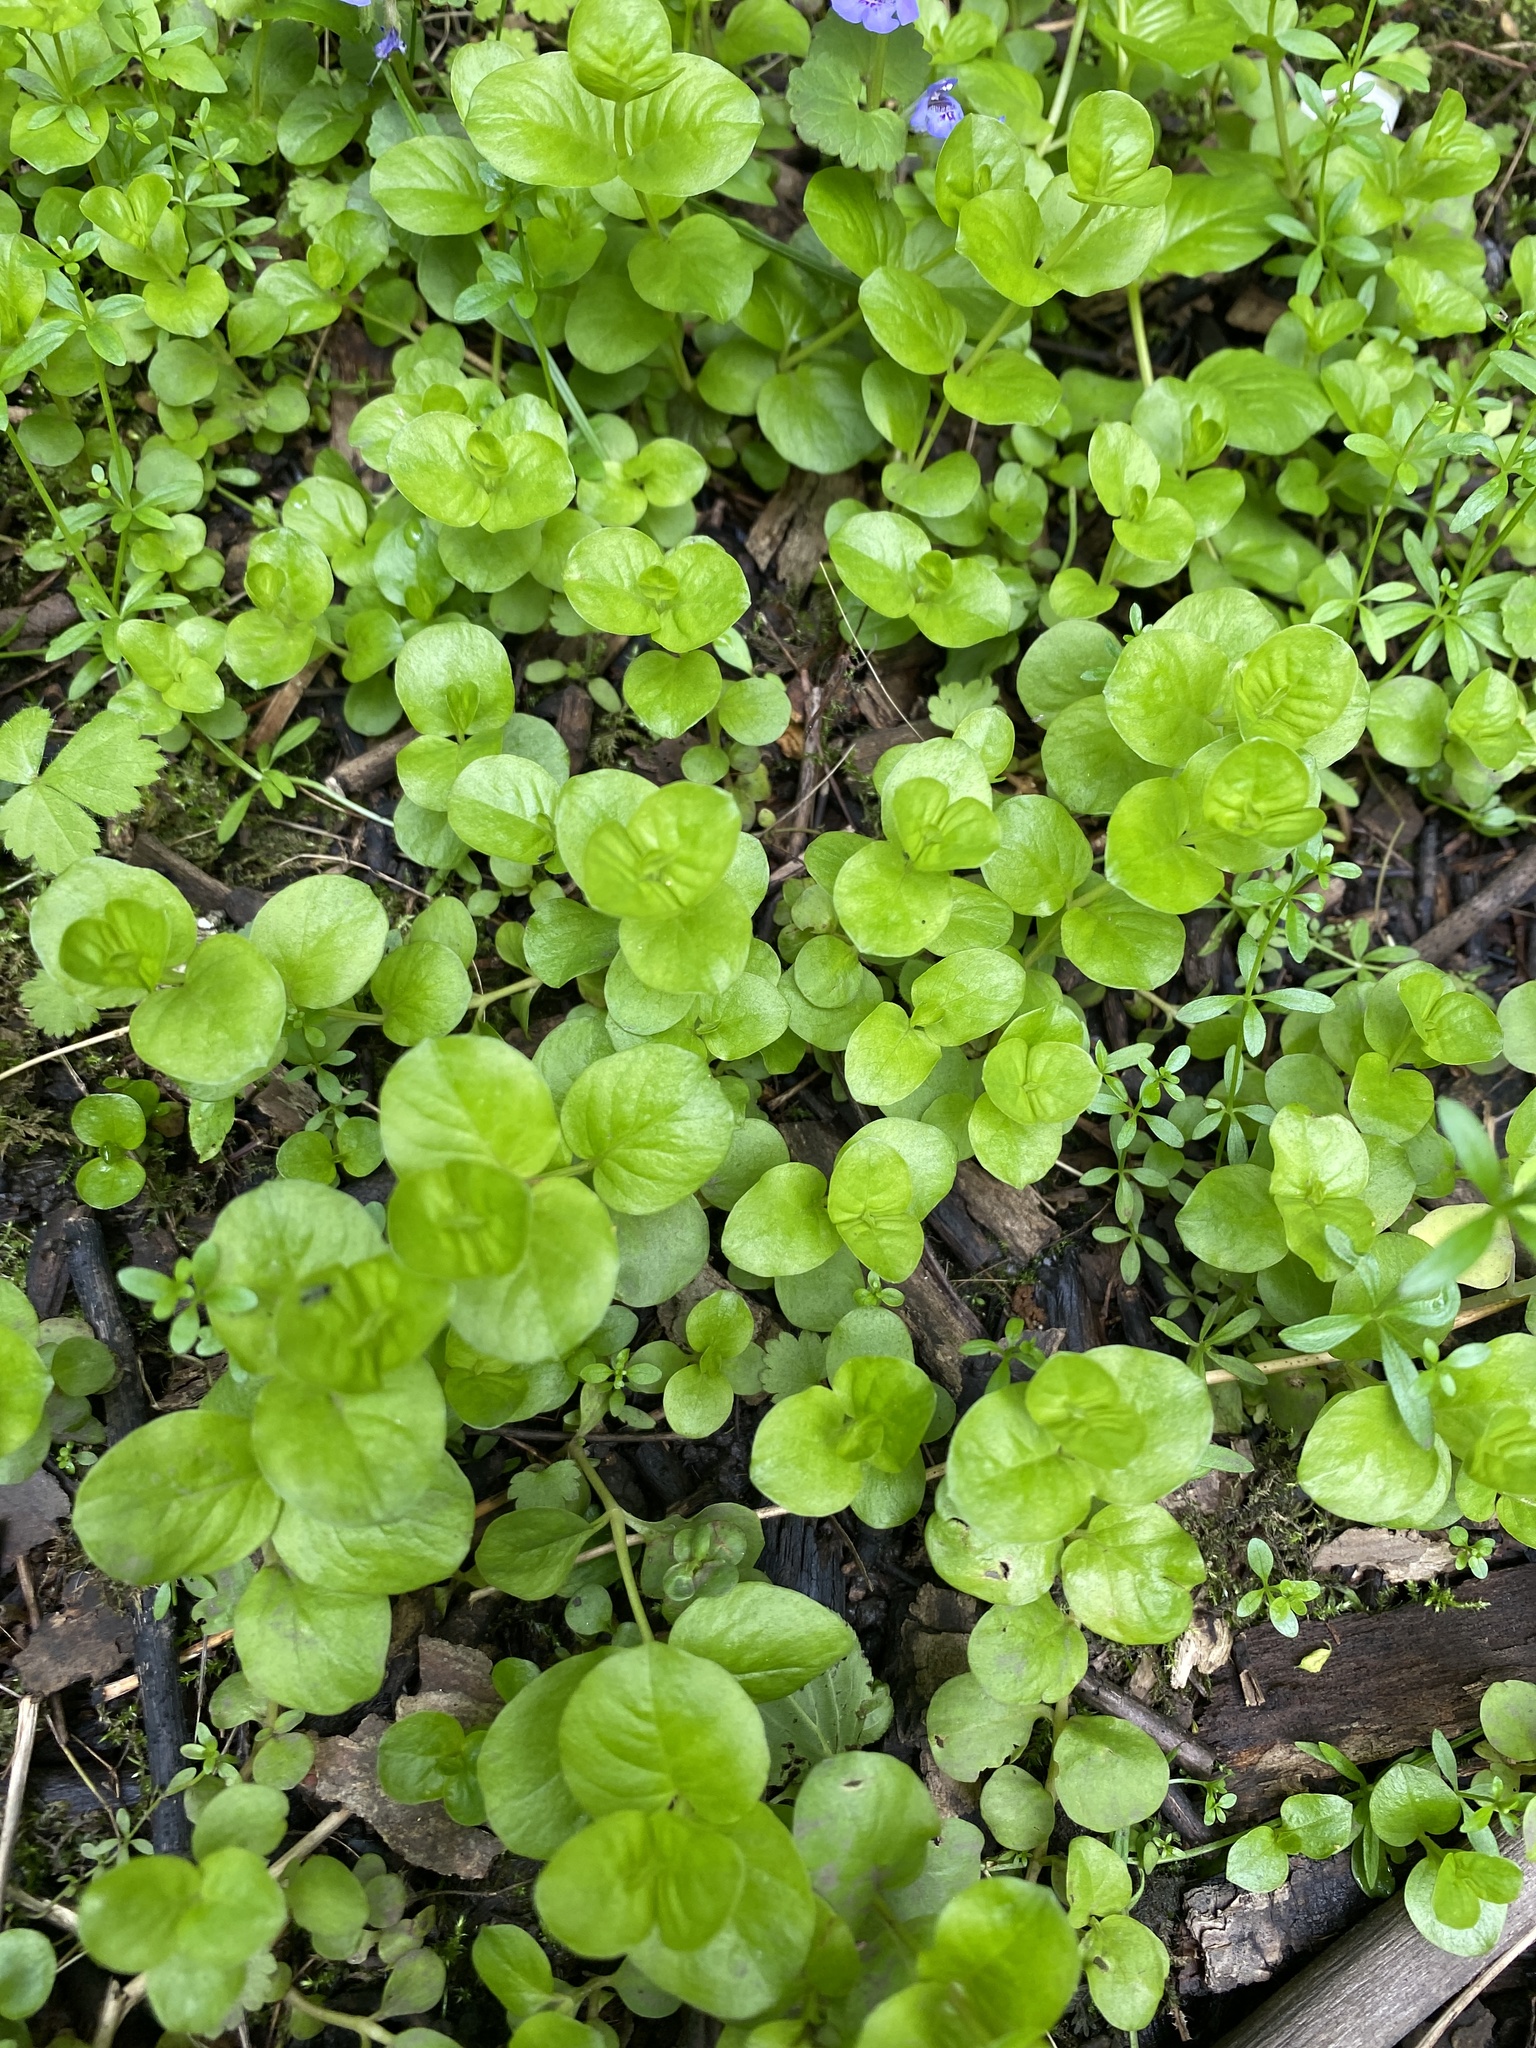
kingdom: Plantae
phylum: Tracheophyta
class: Magnoliopsida
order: Ericales
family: Primulaceae
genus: Lysimachia
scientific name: Lysimachia nummularia
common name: Moneywort
